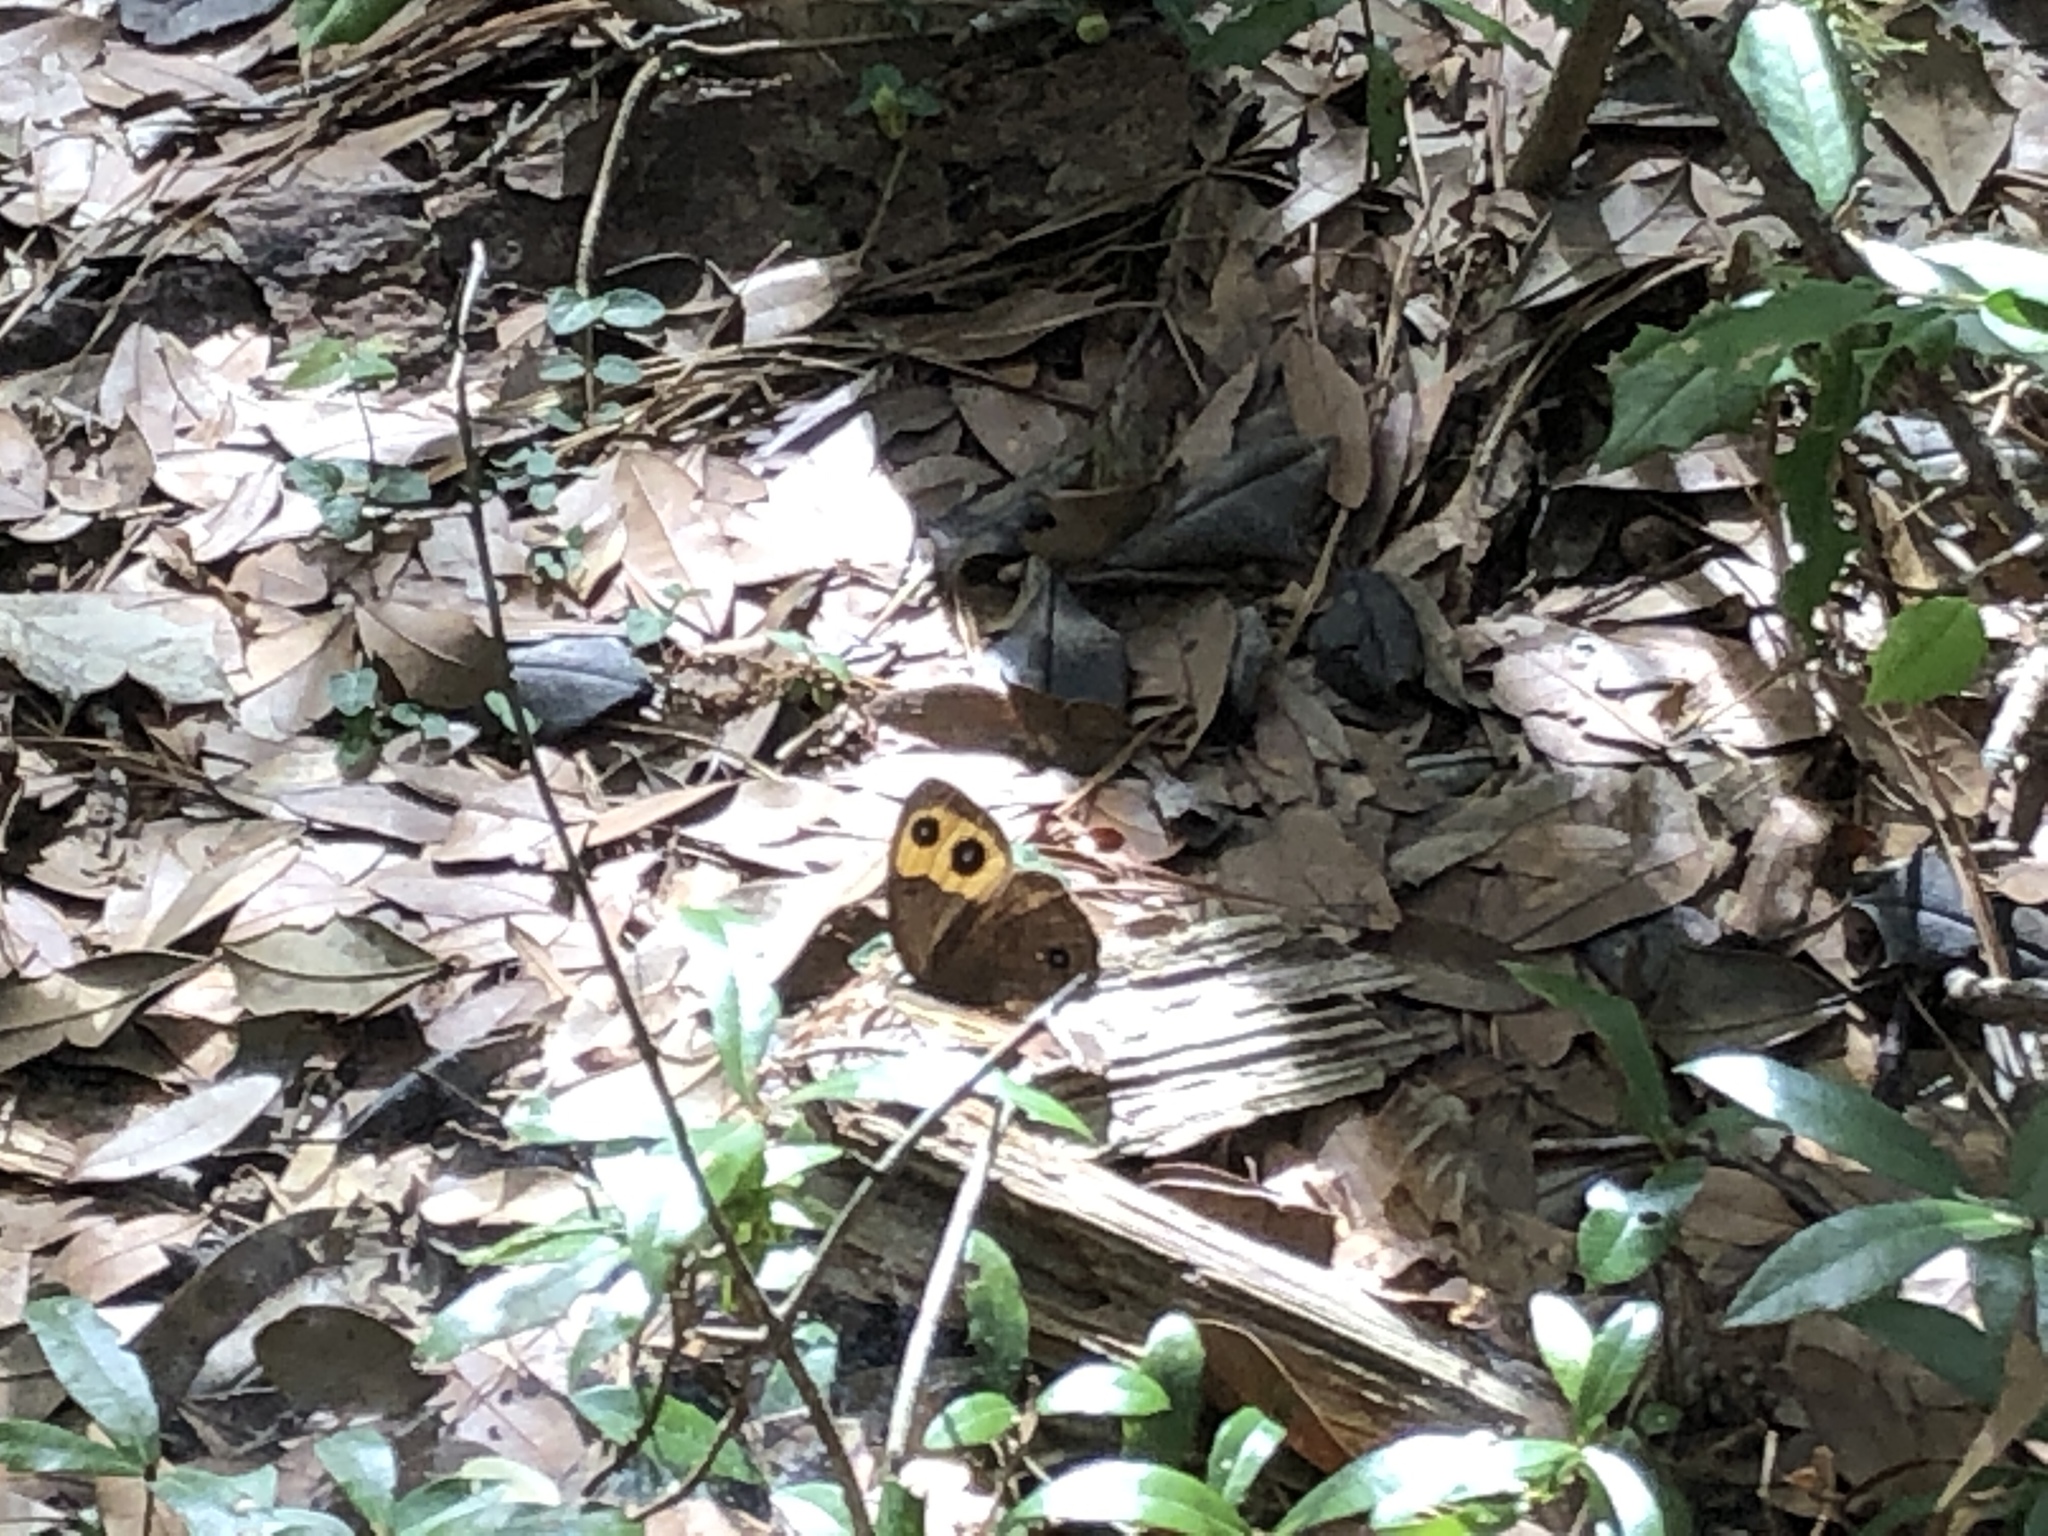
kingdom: Animalia
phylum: Arthropoda
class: Insecta
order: Lepidoptera
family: Nymphalidae
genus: Cercyonis
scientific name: Cercyonis pegala
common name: Common wood-nymph
